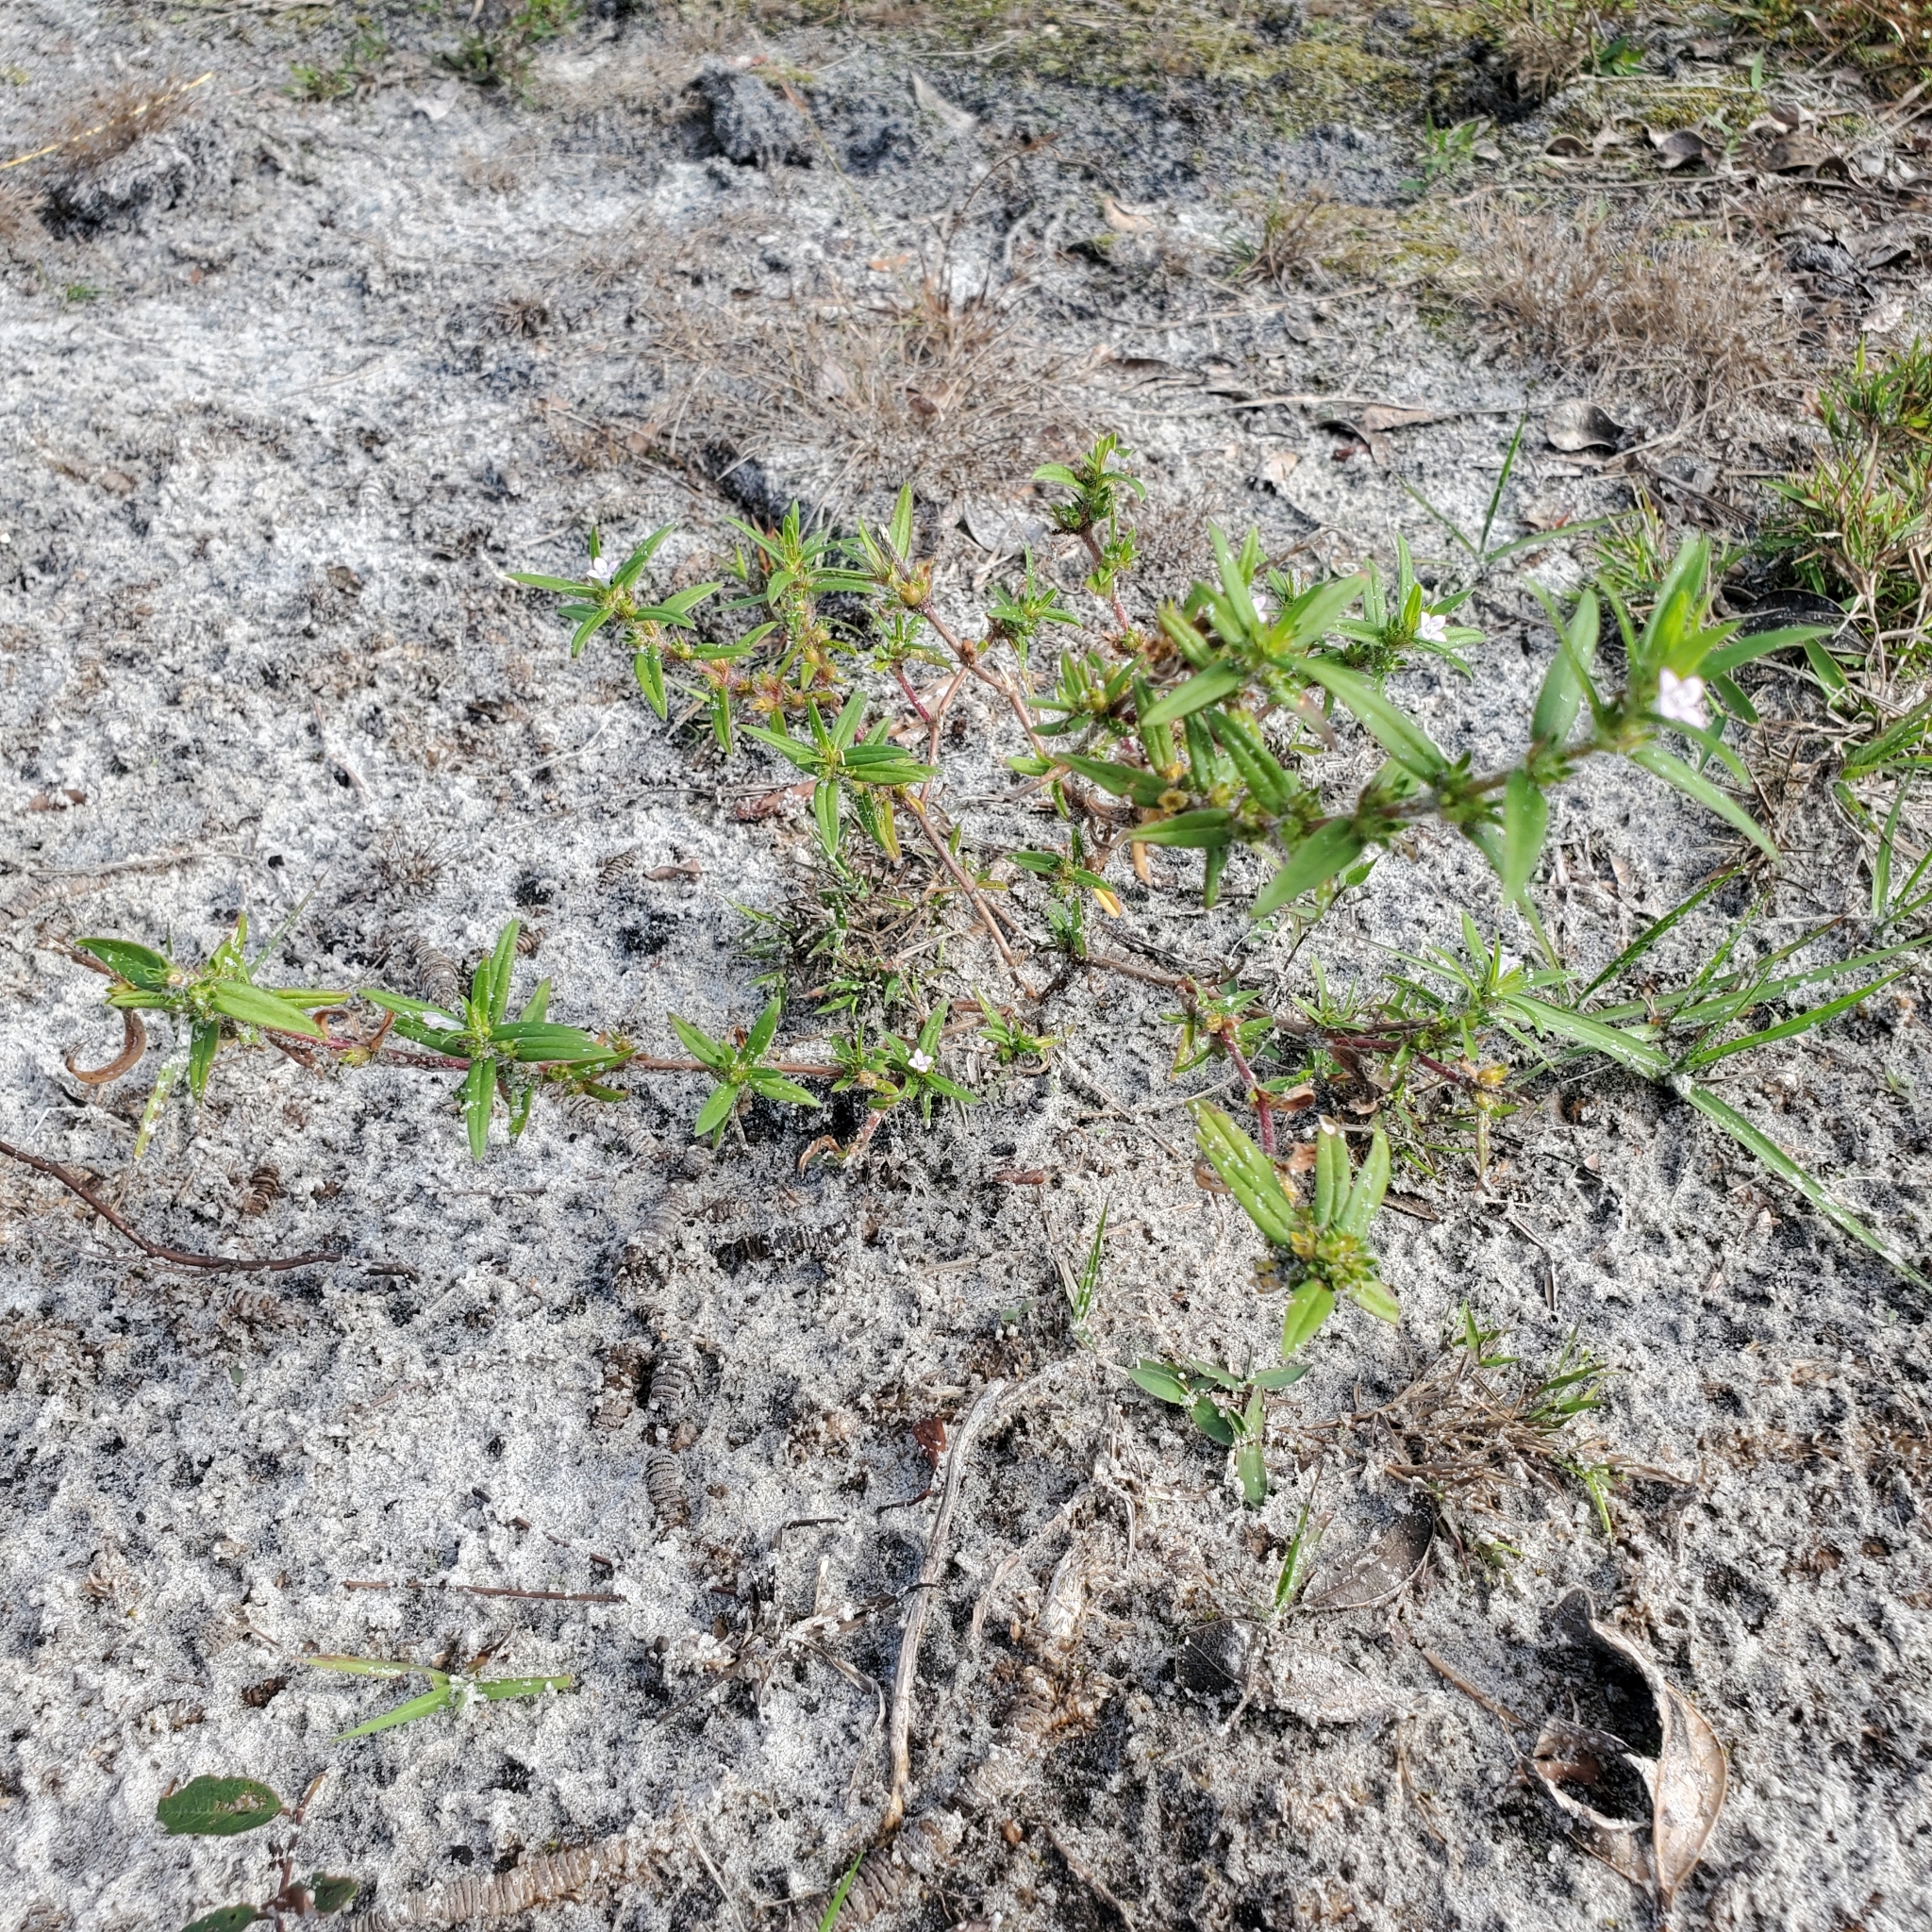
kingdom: Plantae
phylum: Tracheophyta
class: Magnoliopsida
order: Gentianales
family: Rubiaceae
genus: Hexasepalum
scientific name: Hexasepalum teres
